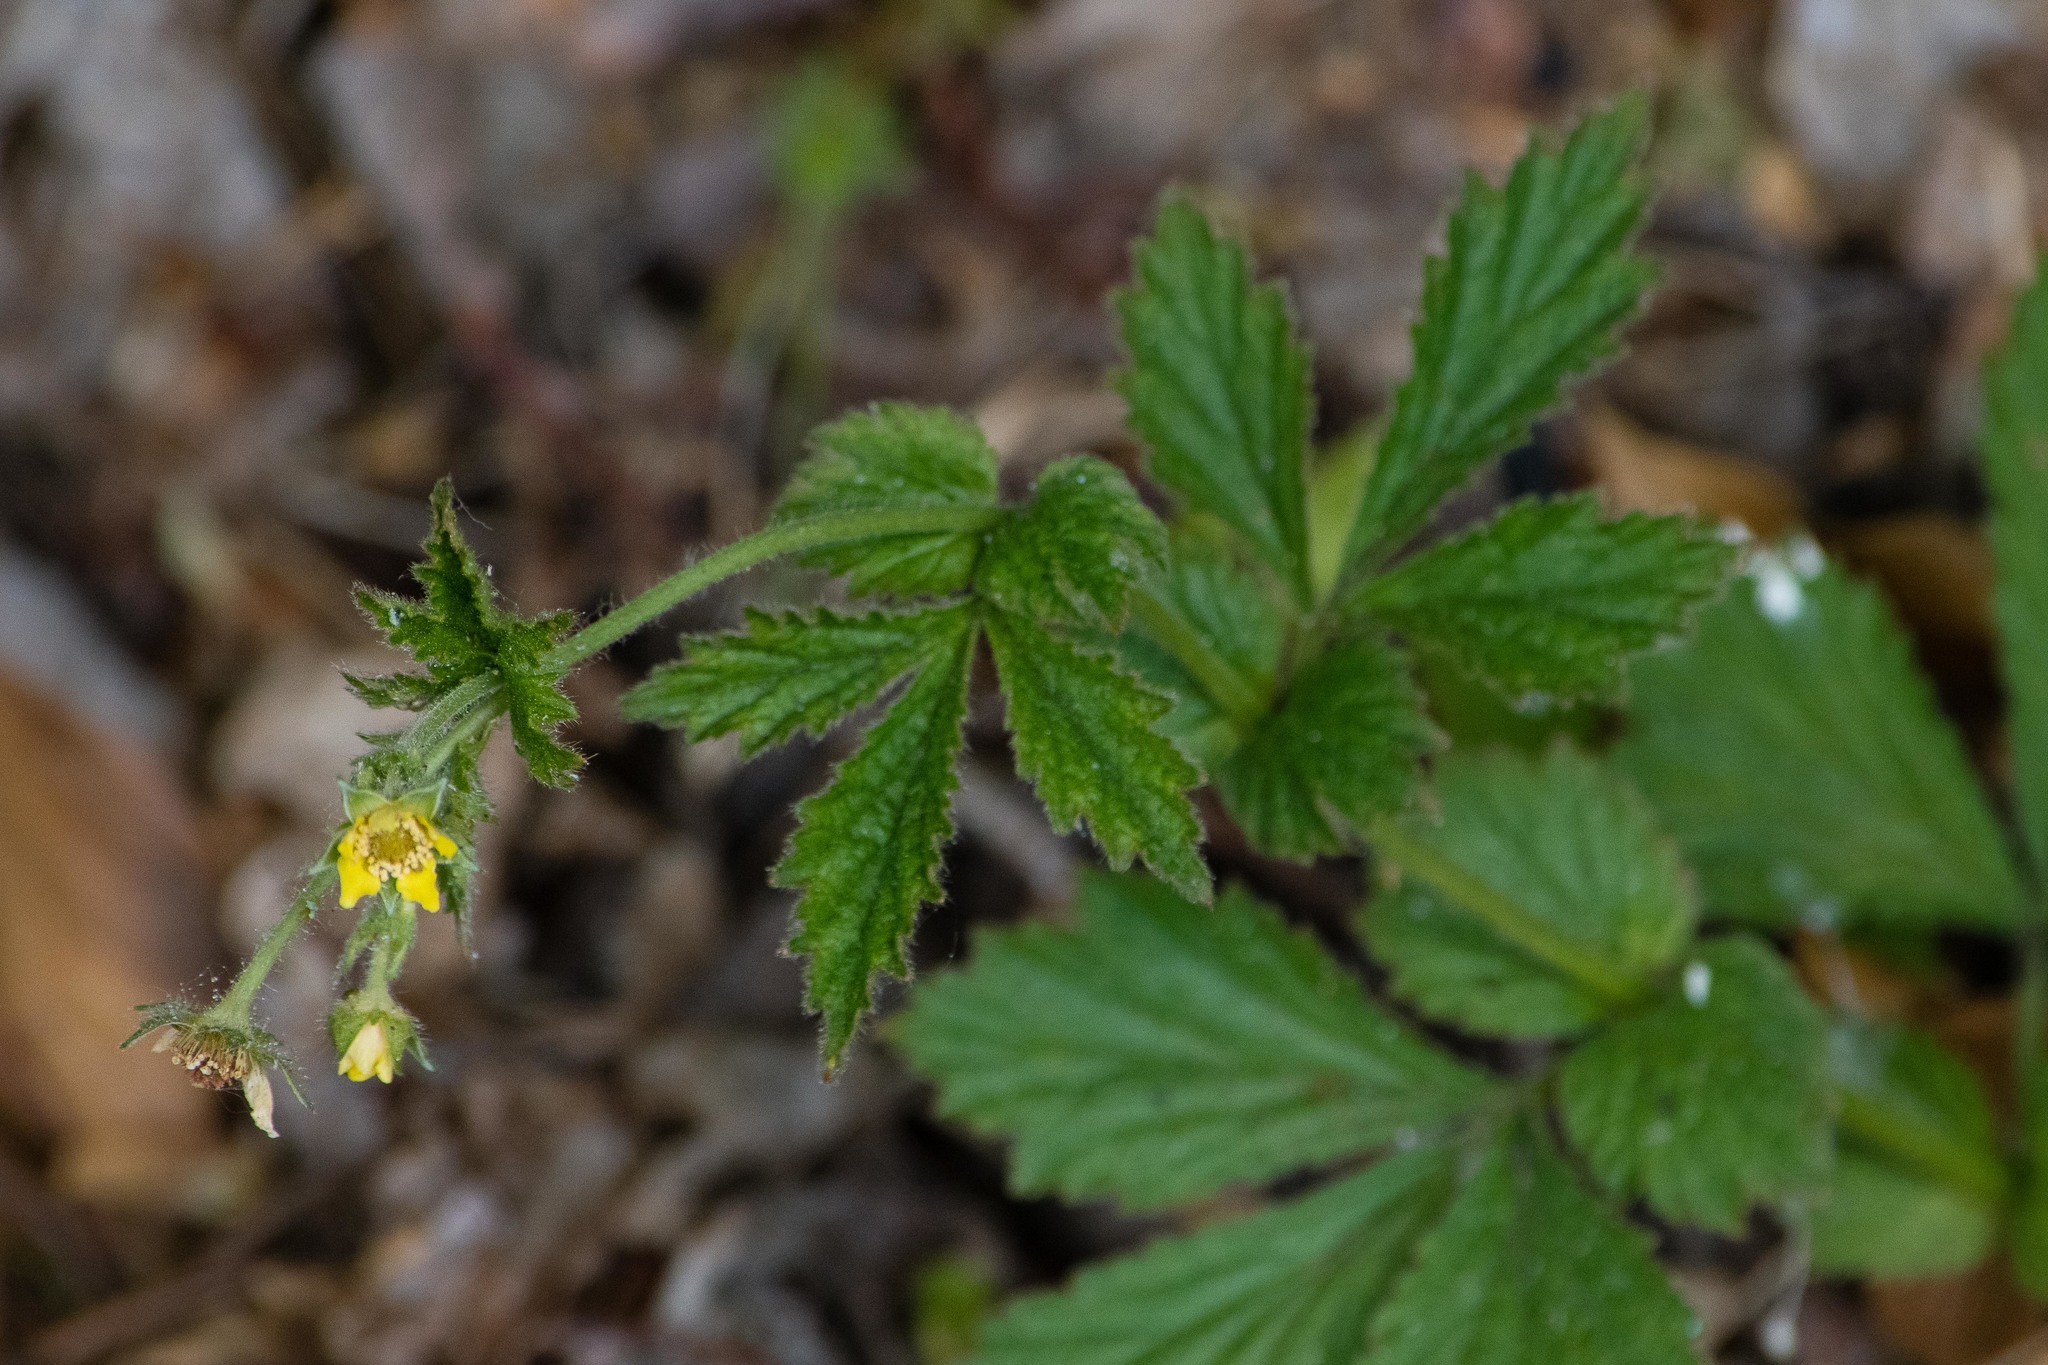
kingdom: Plantae
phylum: Tracheophyta
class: Magnoliopsida
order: Rosales
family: Rosaceae
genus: Geum
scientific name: Geum urbanum
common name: Wood avens
